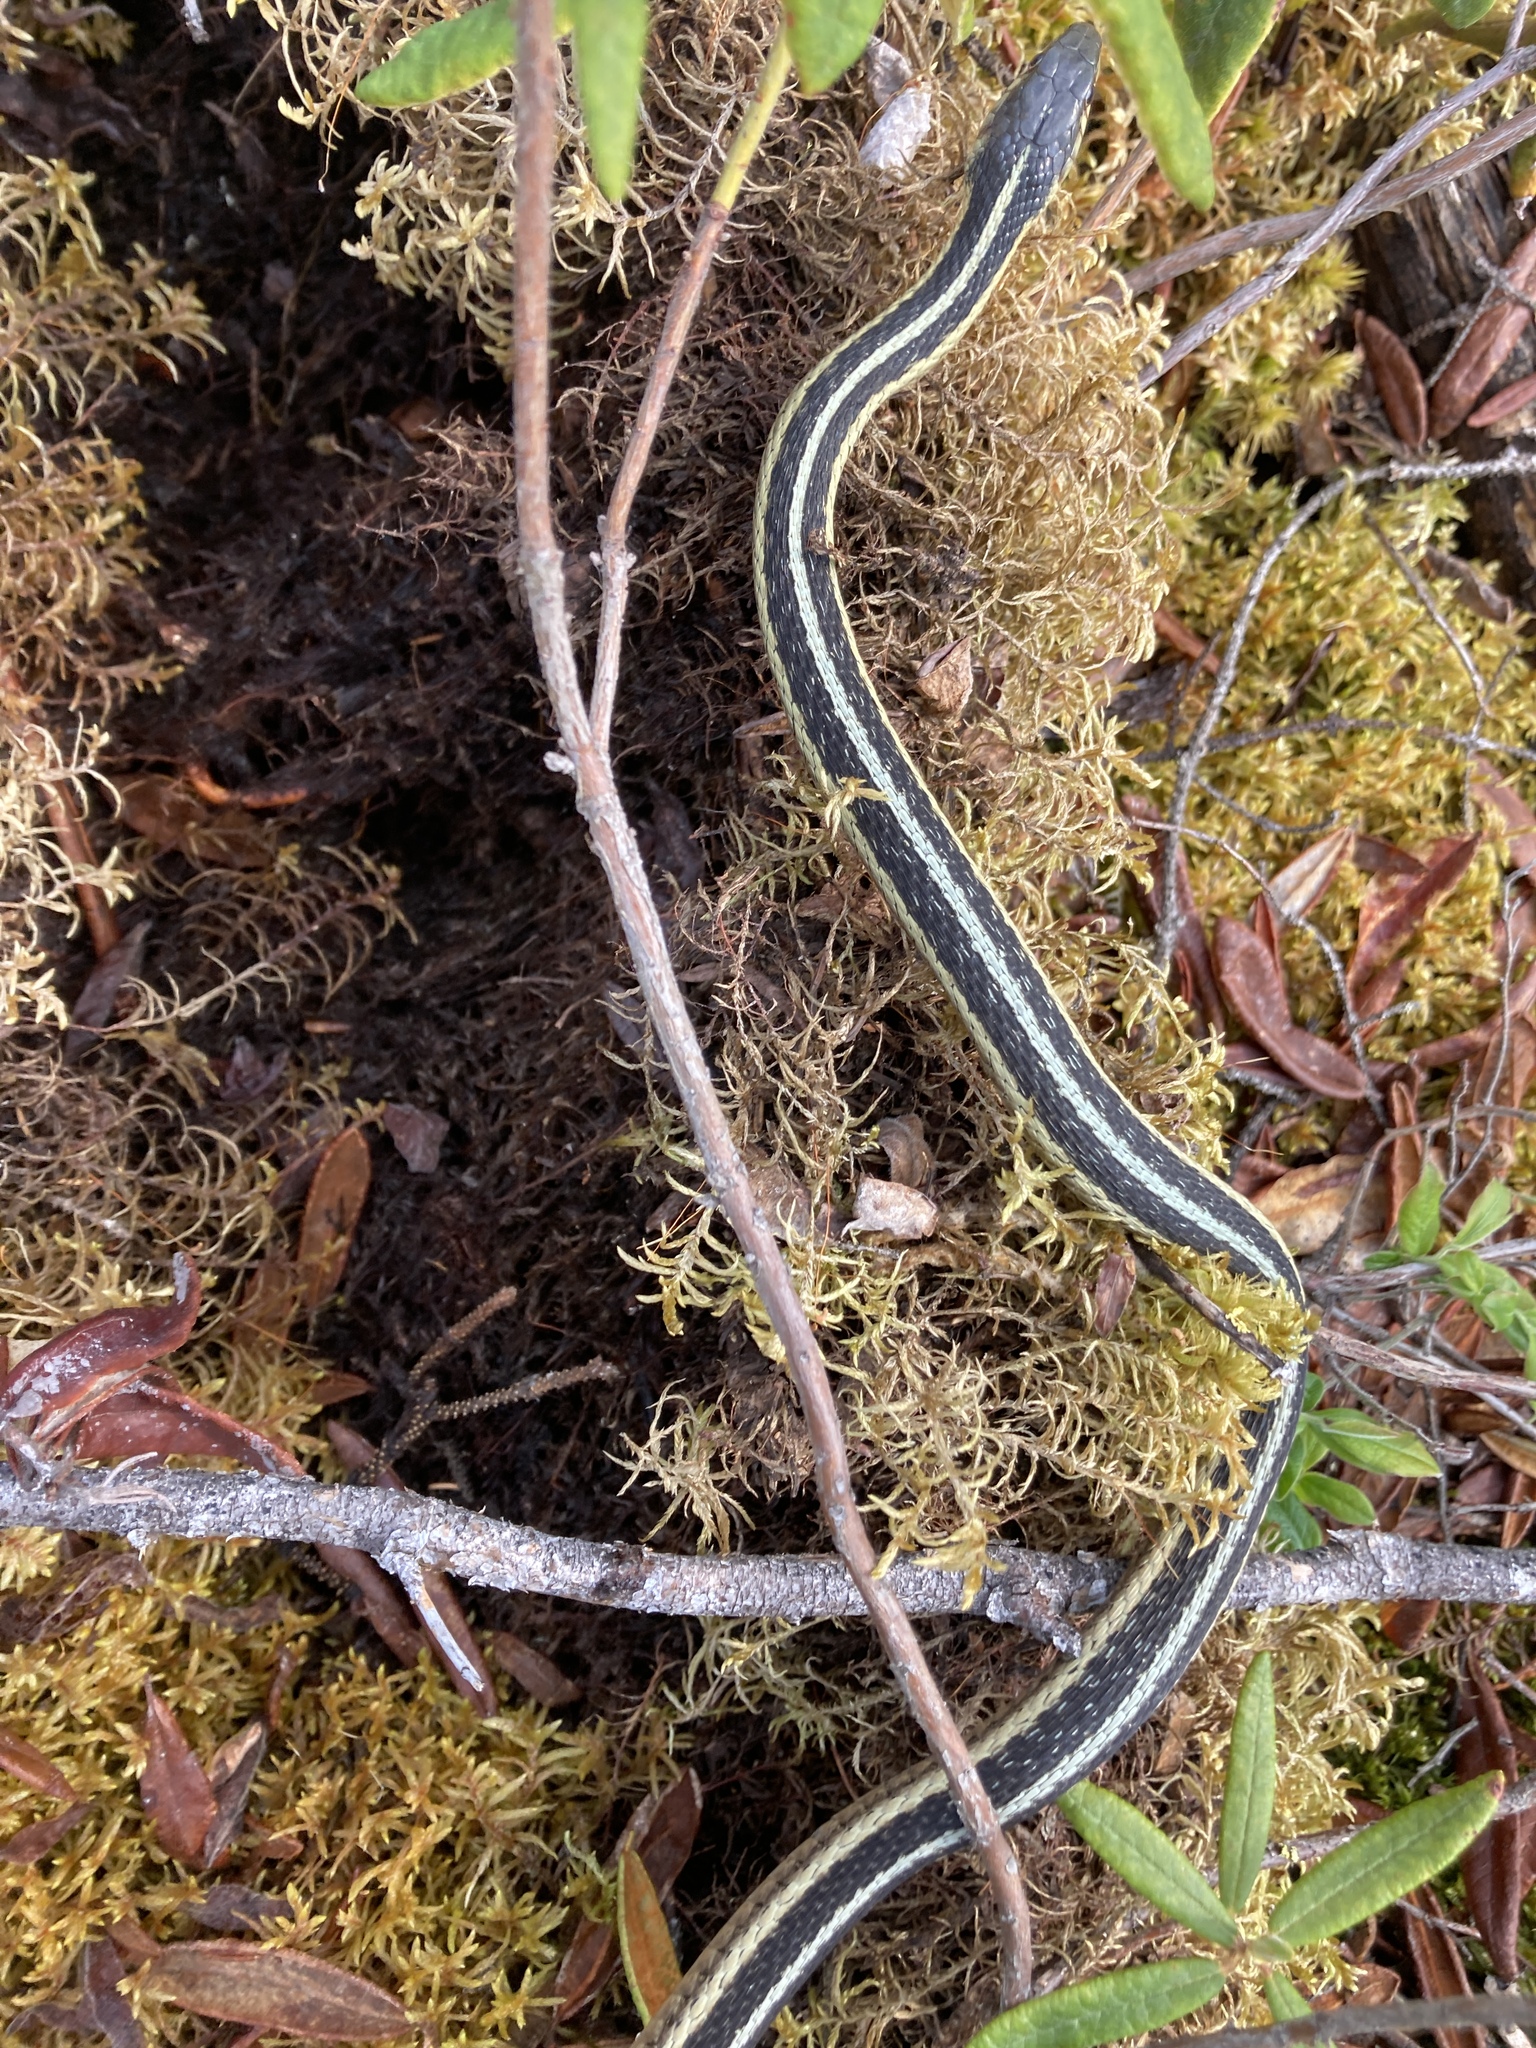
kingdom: Animalia
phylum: Chordata
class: Squamata
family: Colubridae
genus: Thamnophis
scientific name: Thamnophis sirtalis
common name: Common garter snake
